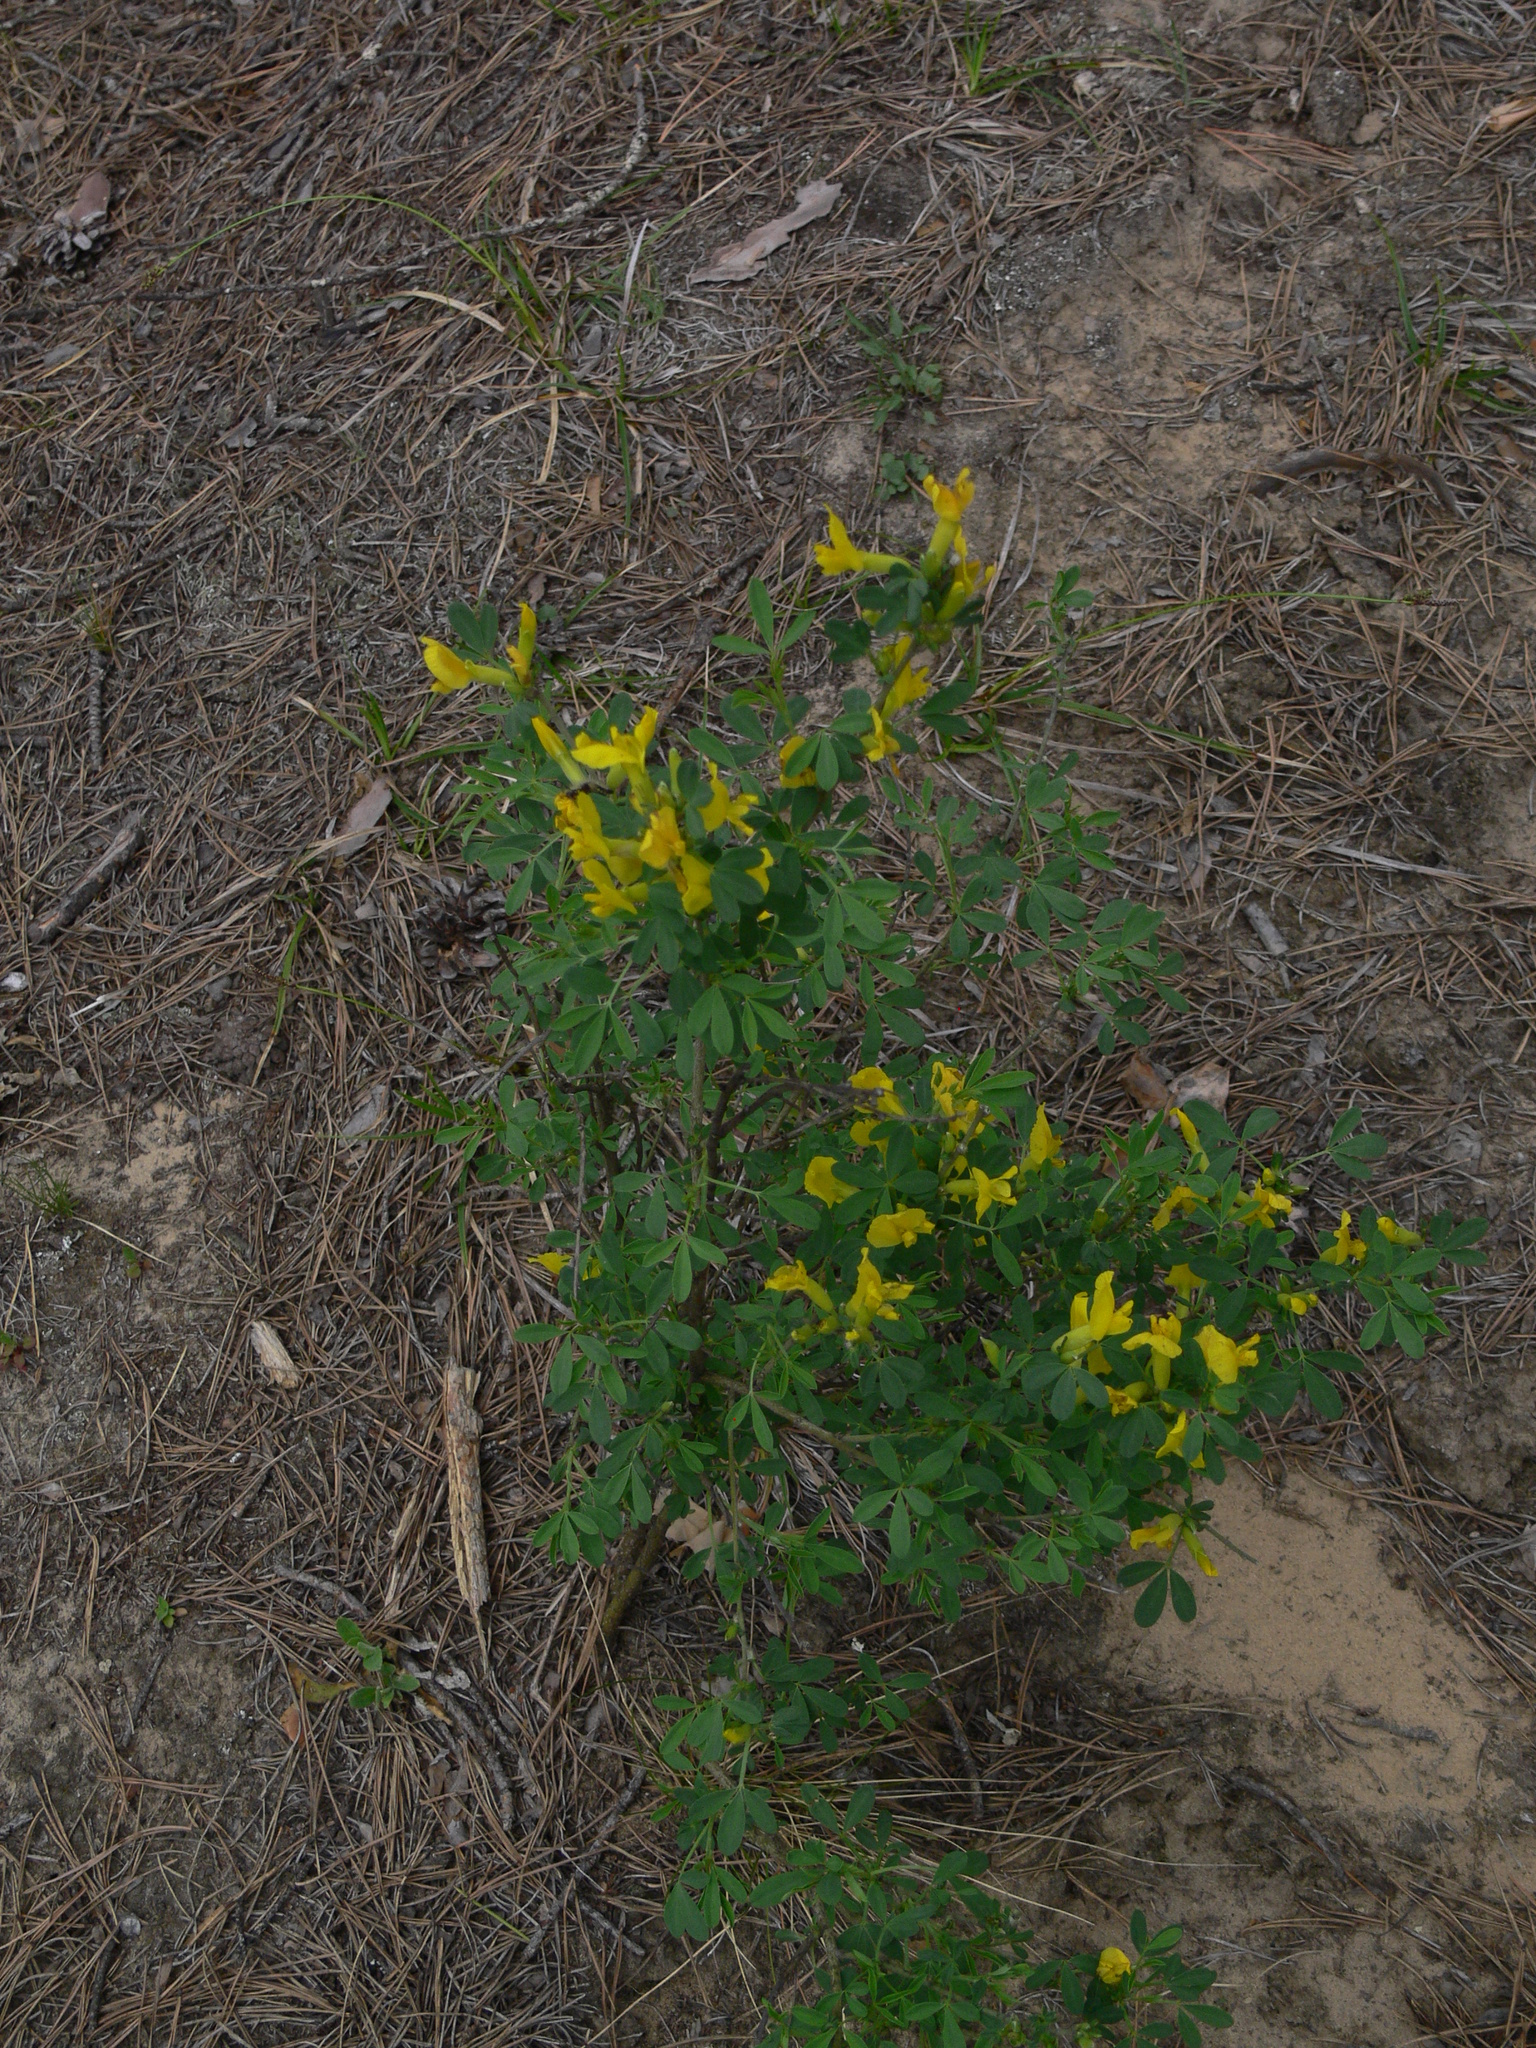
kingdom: Plantae
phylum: Tracheophyta
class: Magnoliopsida
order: Fabales
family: Fabaceae
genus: Chamaecytisus
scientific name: Chamaecytisus ruthenicus
